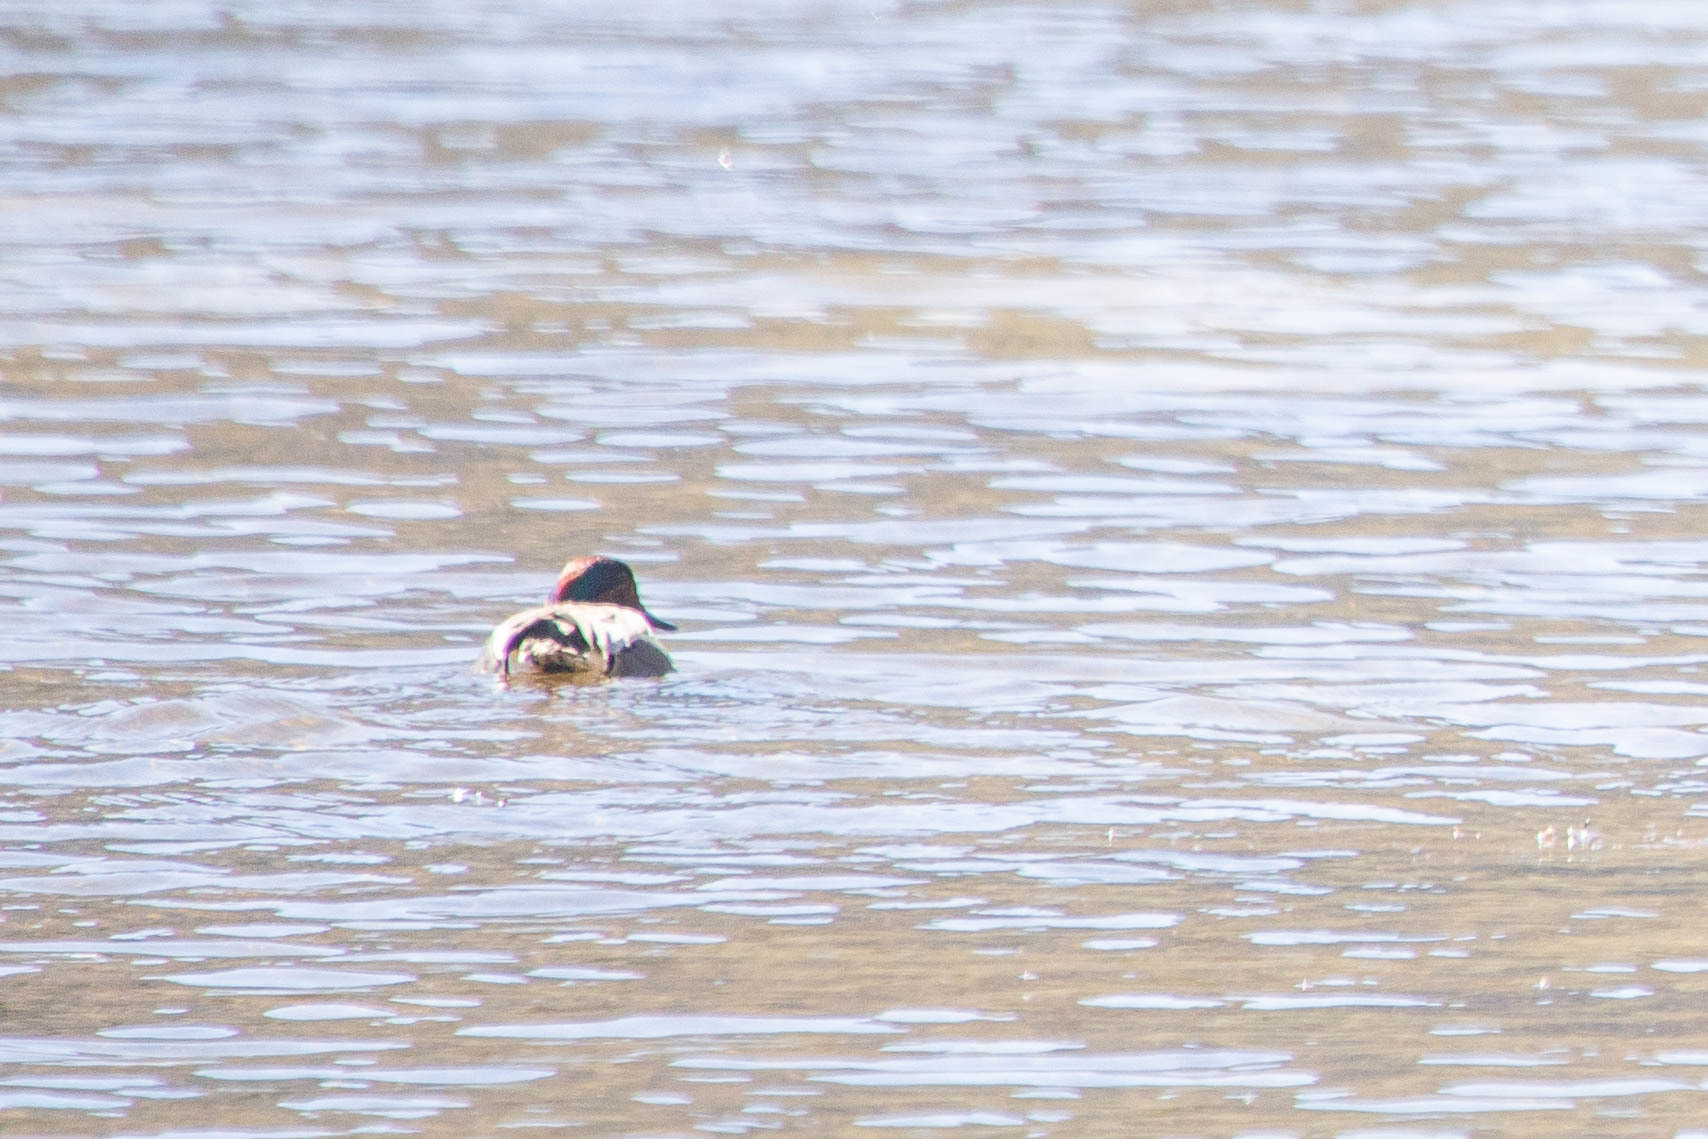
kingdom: Animalia
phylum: Chordata
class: Aves
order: Anseriformes
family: Anatidae
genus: Anas
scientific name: Anas crecca
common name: Eurasian teal
